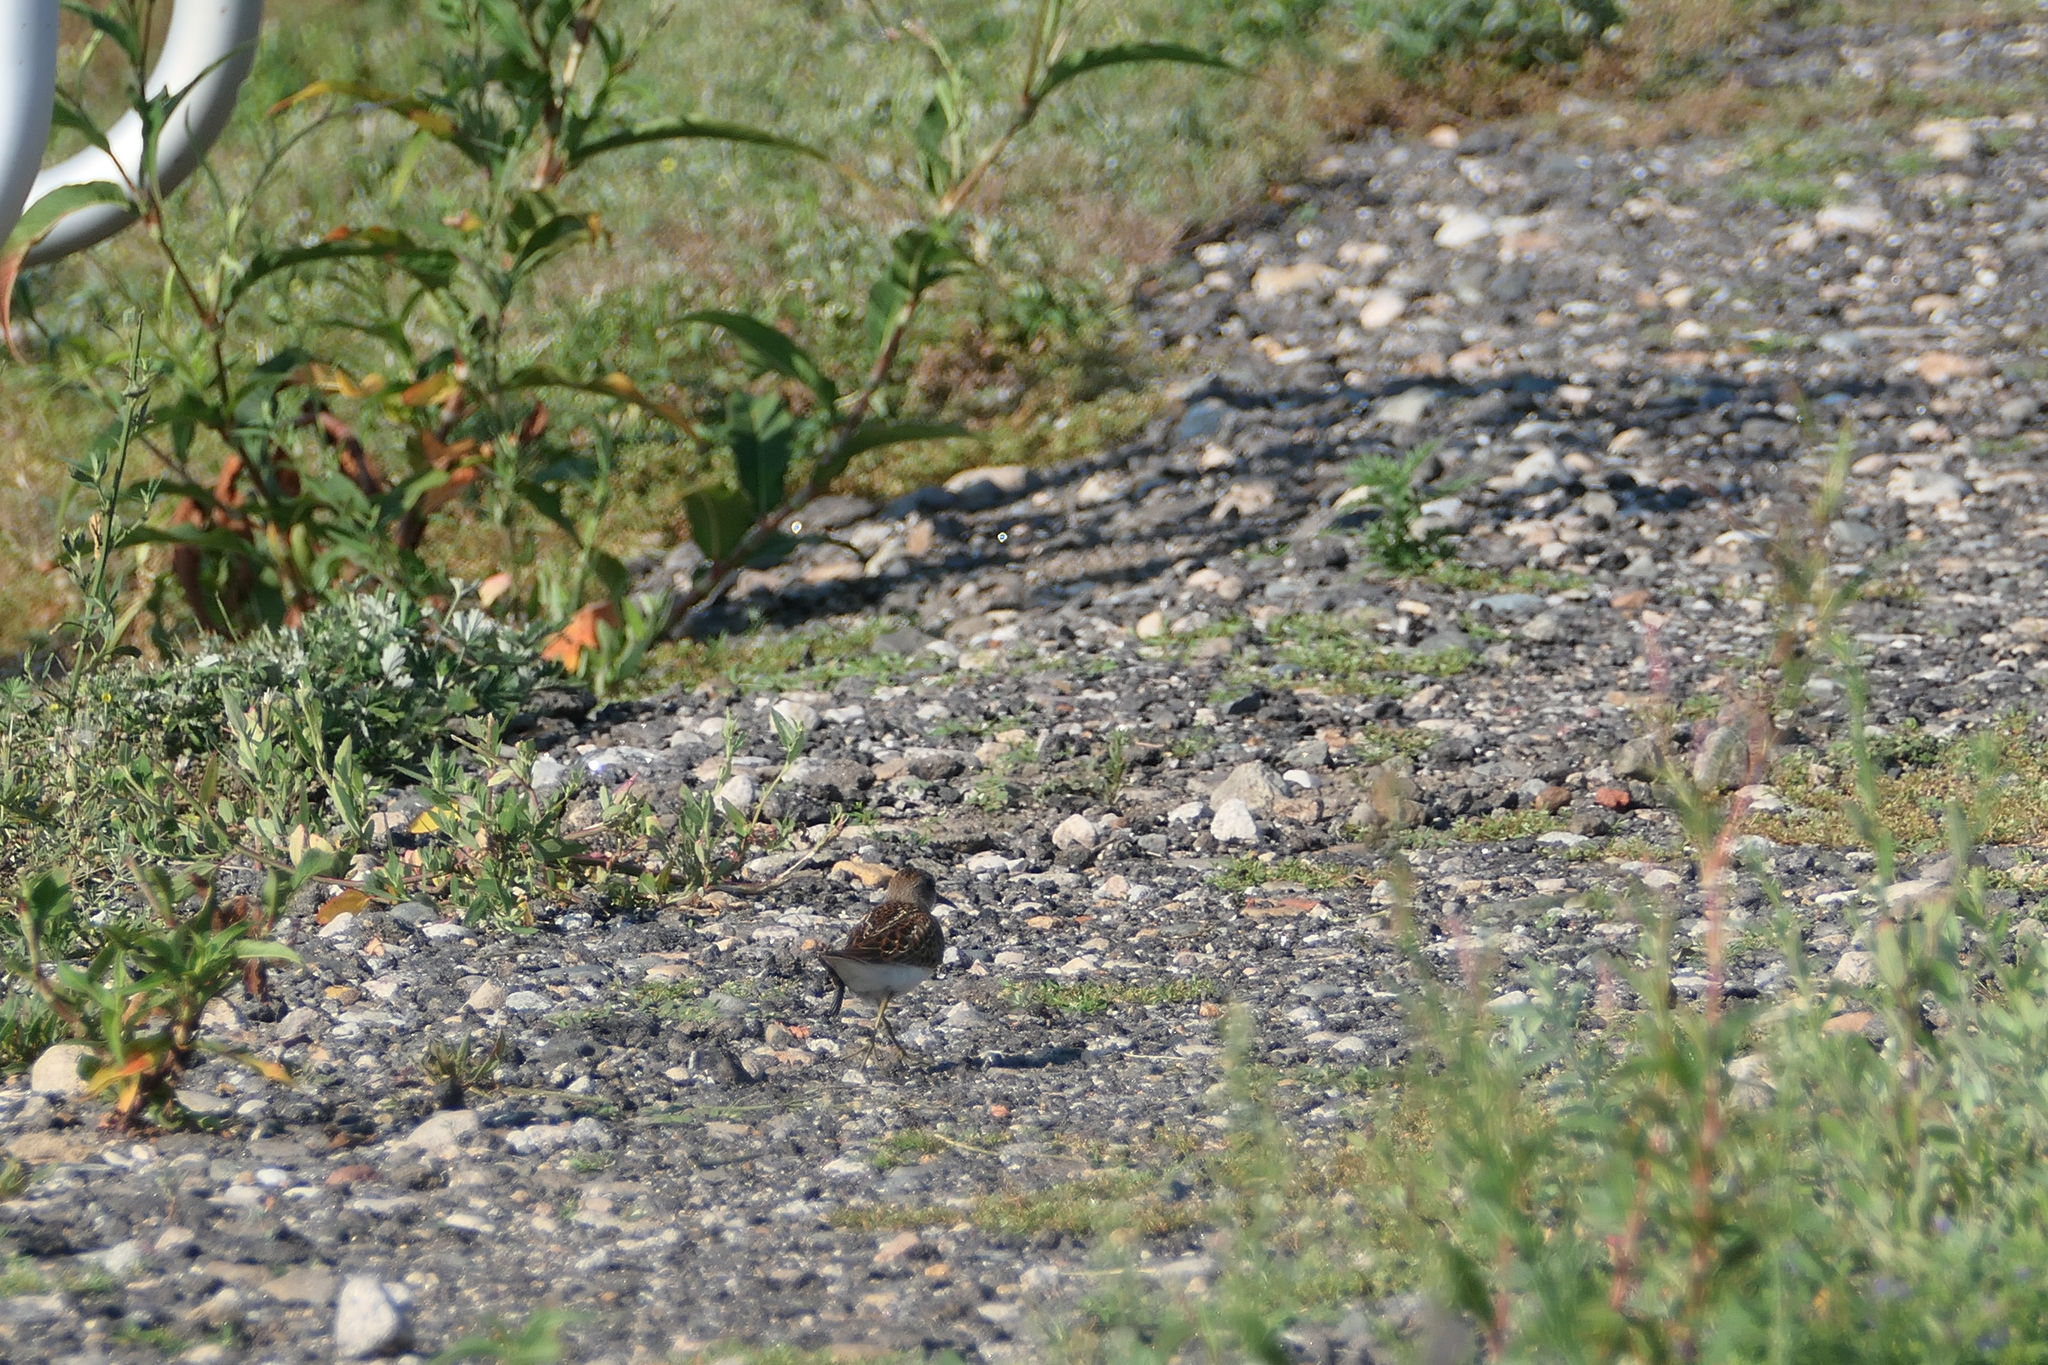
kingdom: Animalia
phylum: Chordata
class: Aves
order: Charadriiformes
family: Scolopacidae
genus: Calidris
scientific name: Calidris minutilla
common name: Least sandpiper
